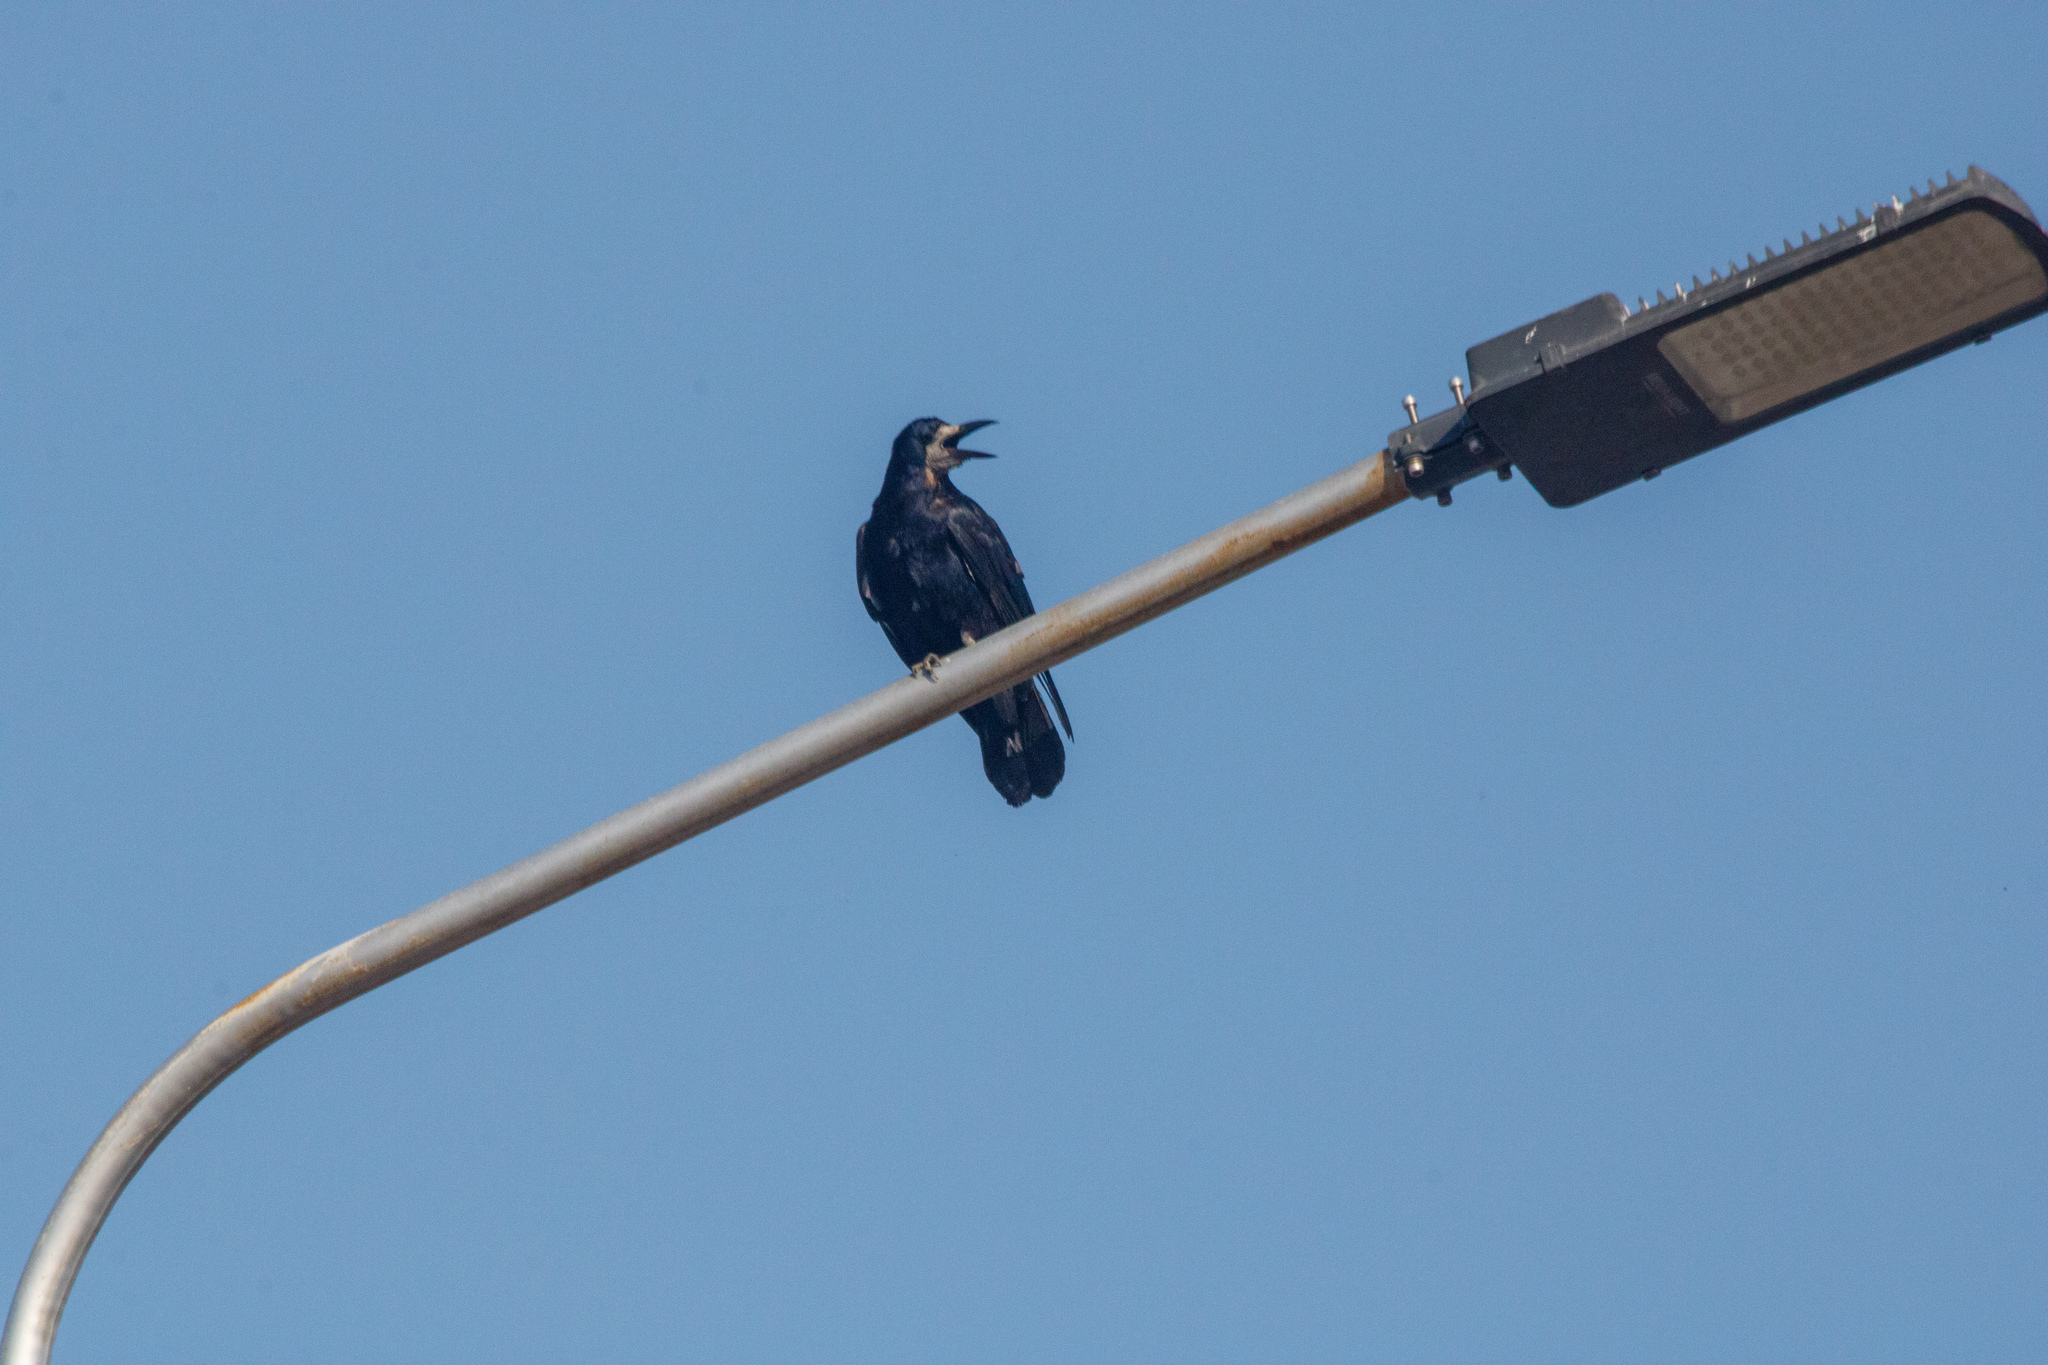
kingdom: Animalia
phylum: Chordata
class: Aves
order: Passeriformes
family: Corvidae
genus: Corvus
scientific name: Corvus frugilegus
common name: Rook
